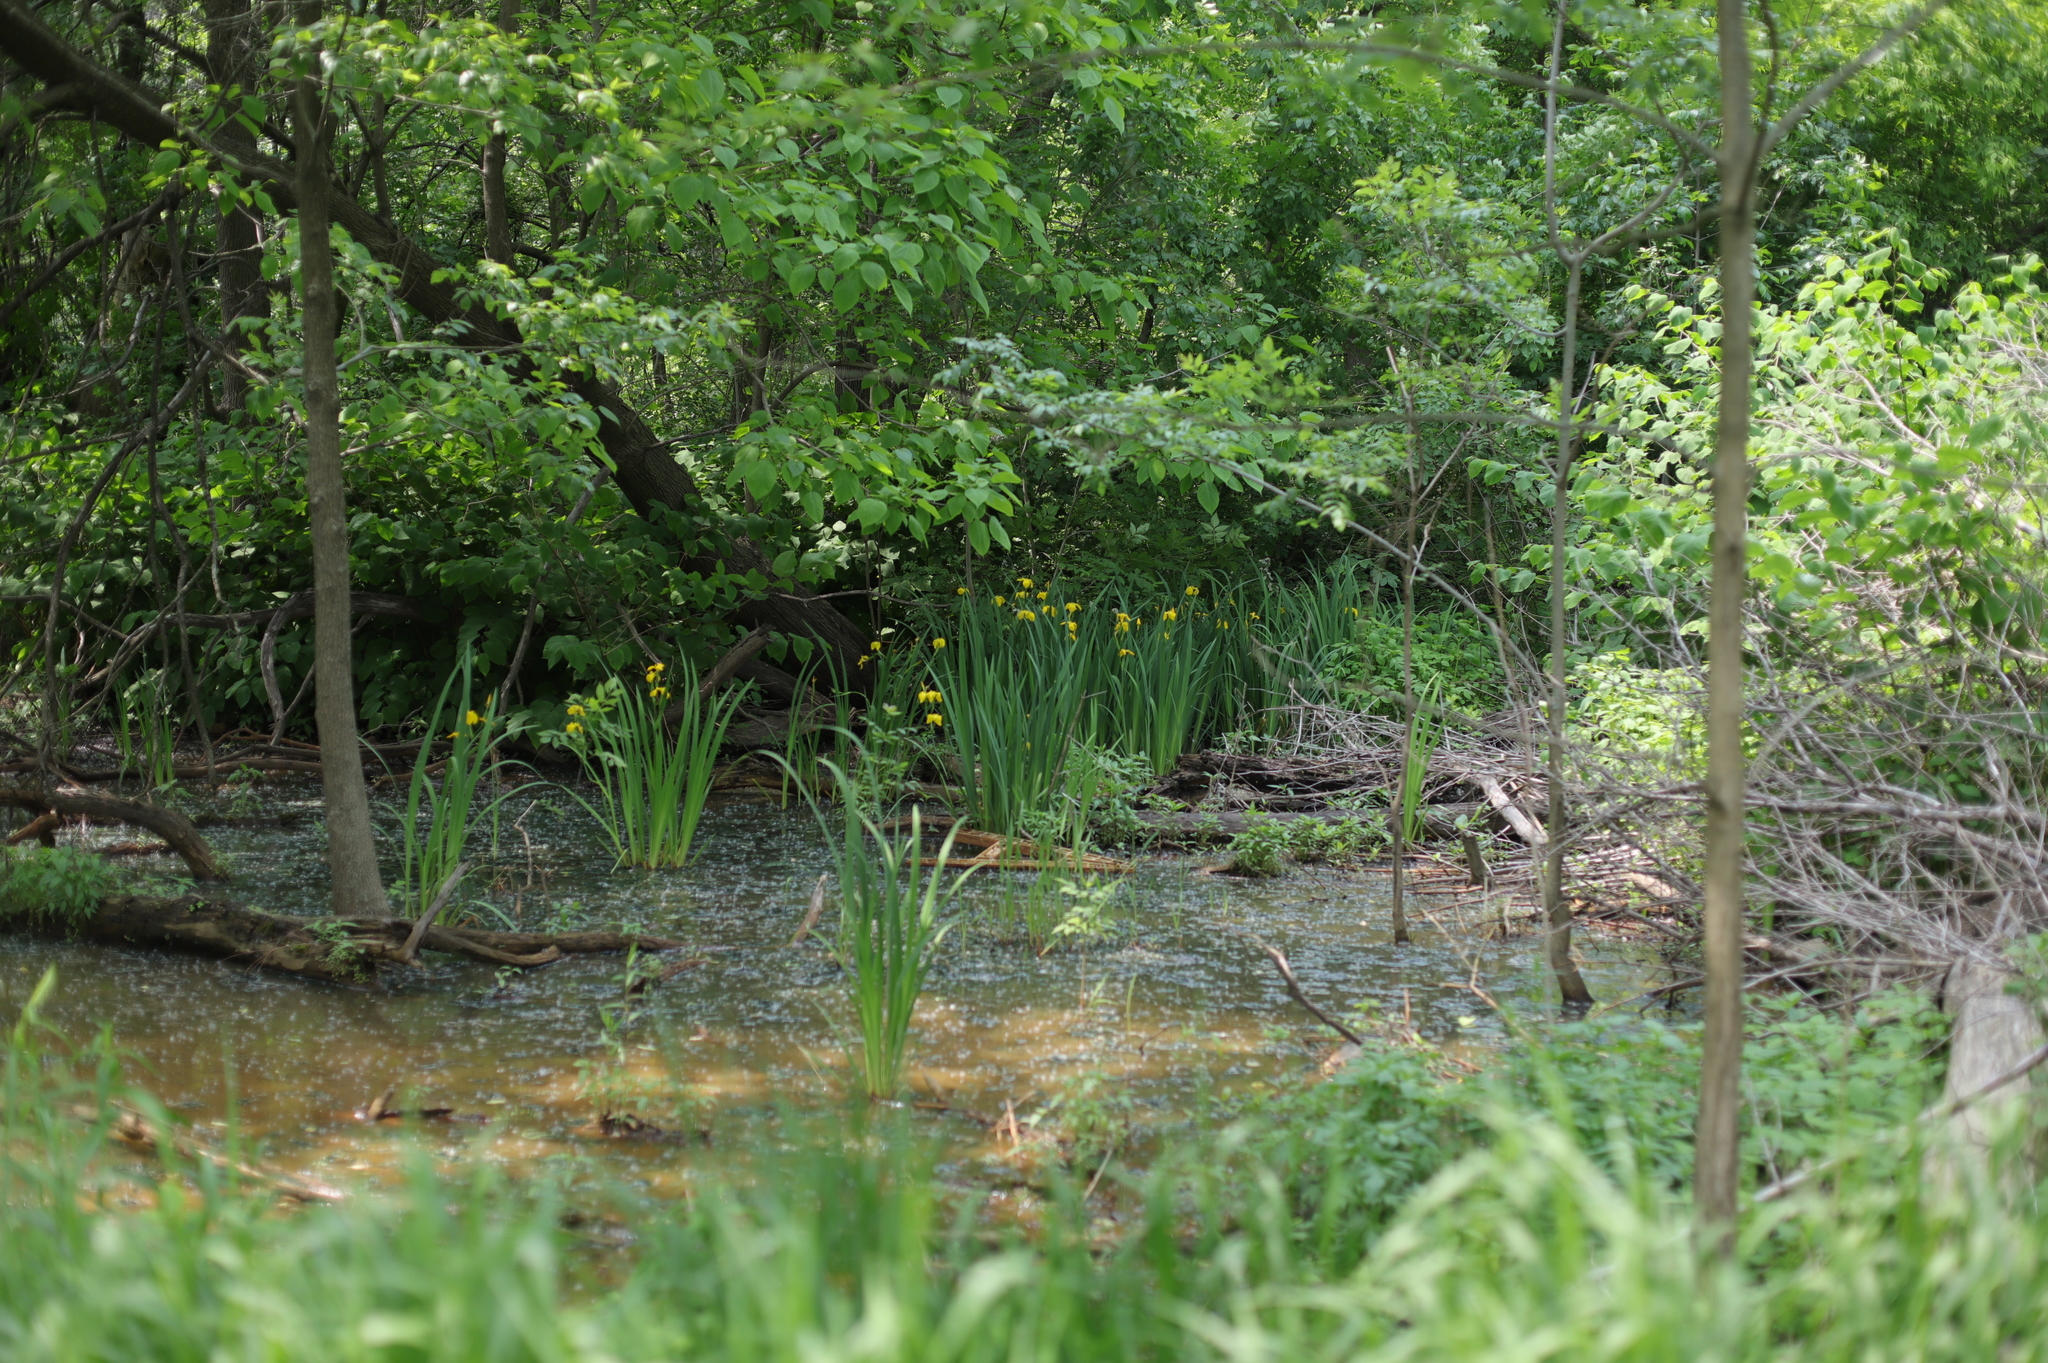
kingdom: Plantae
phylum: Tracheophyta
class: Liliopsida
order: Asparagales
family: Iridaceae
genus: Iris
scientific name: Iris pseudacorus
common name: Yellow flag
